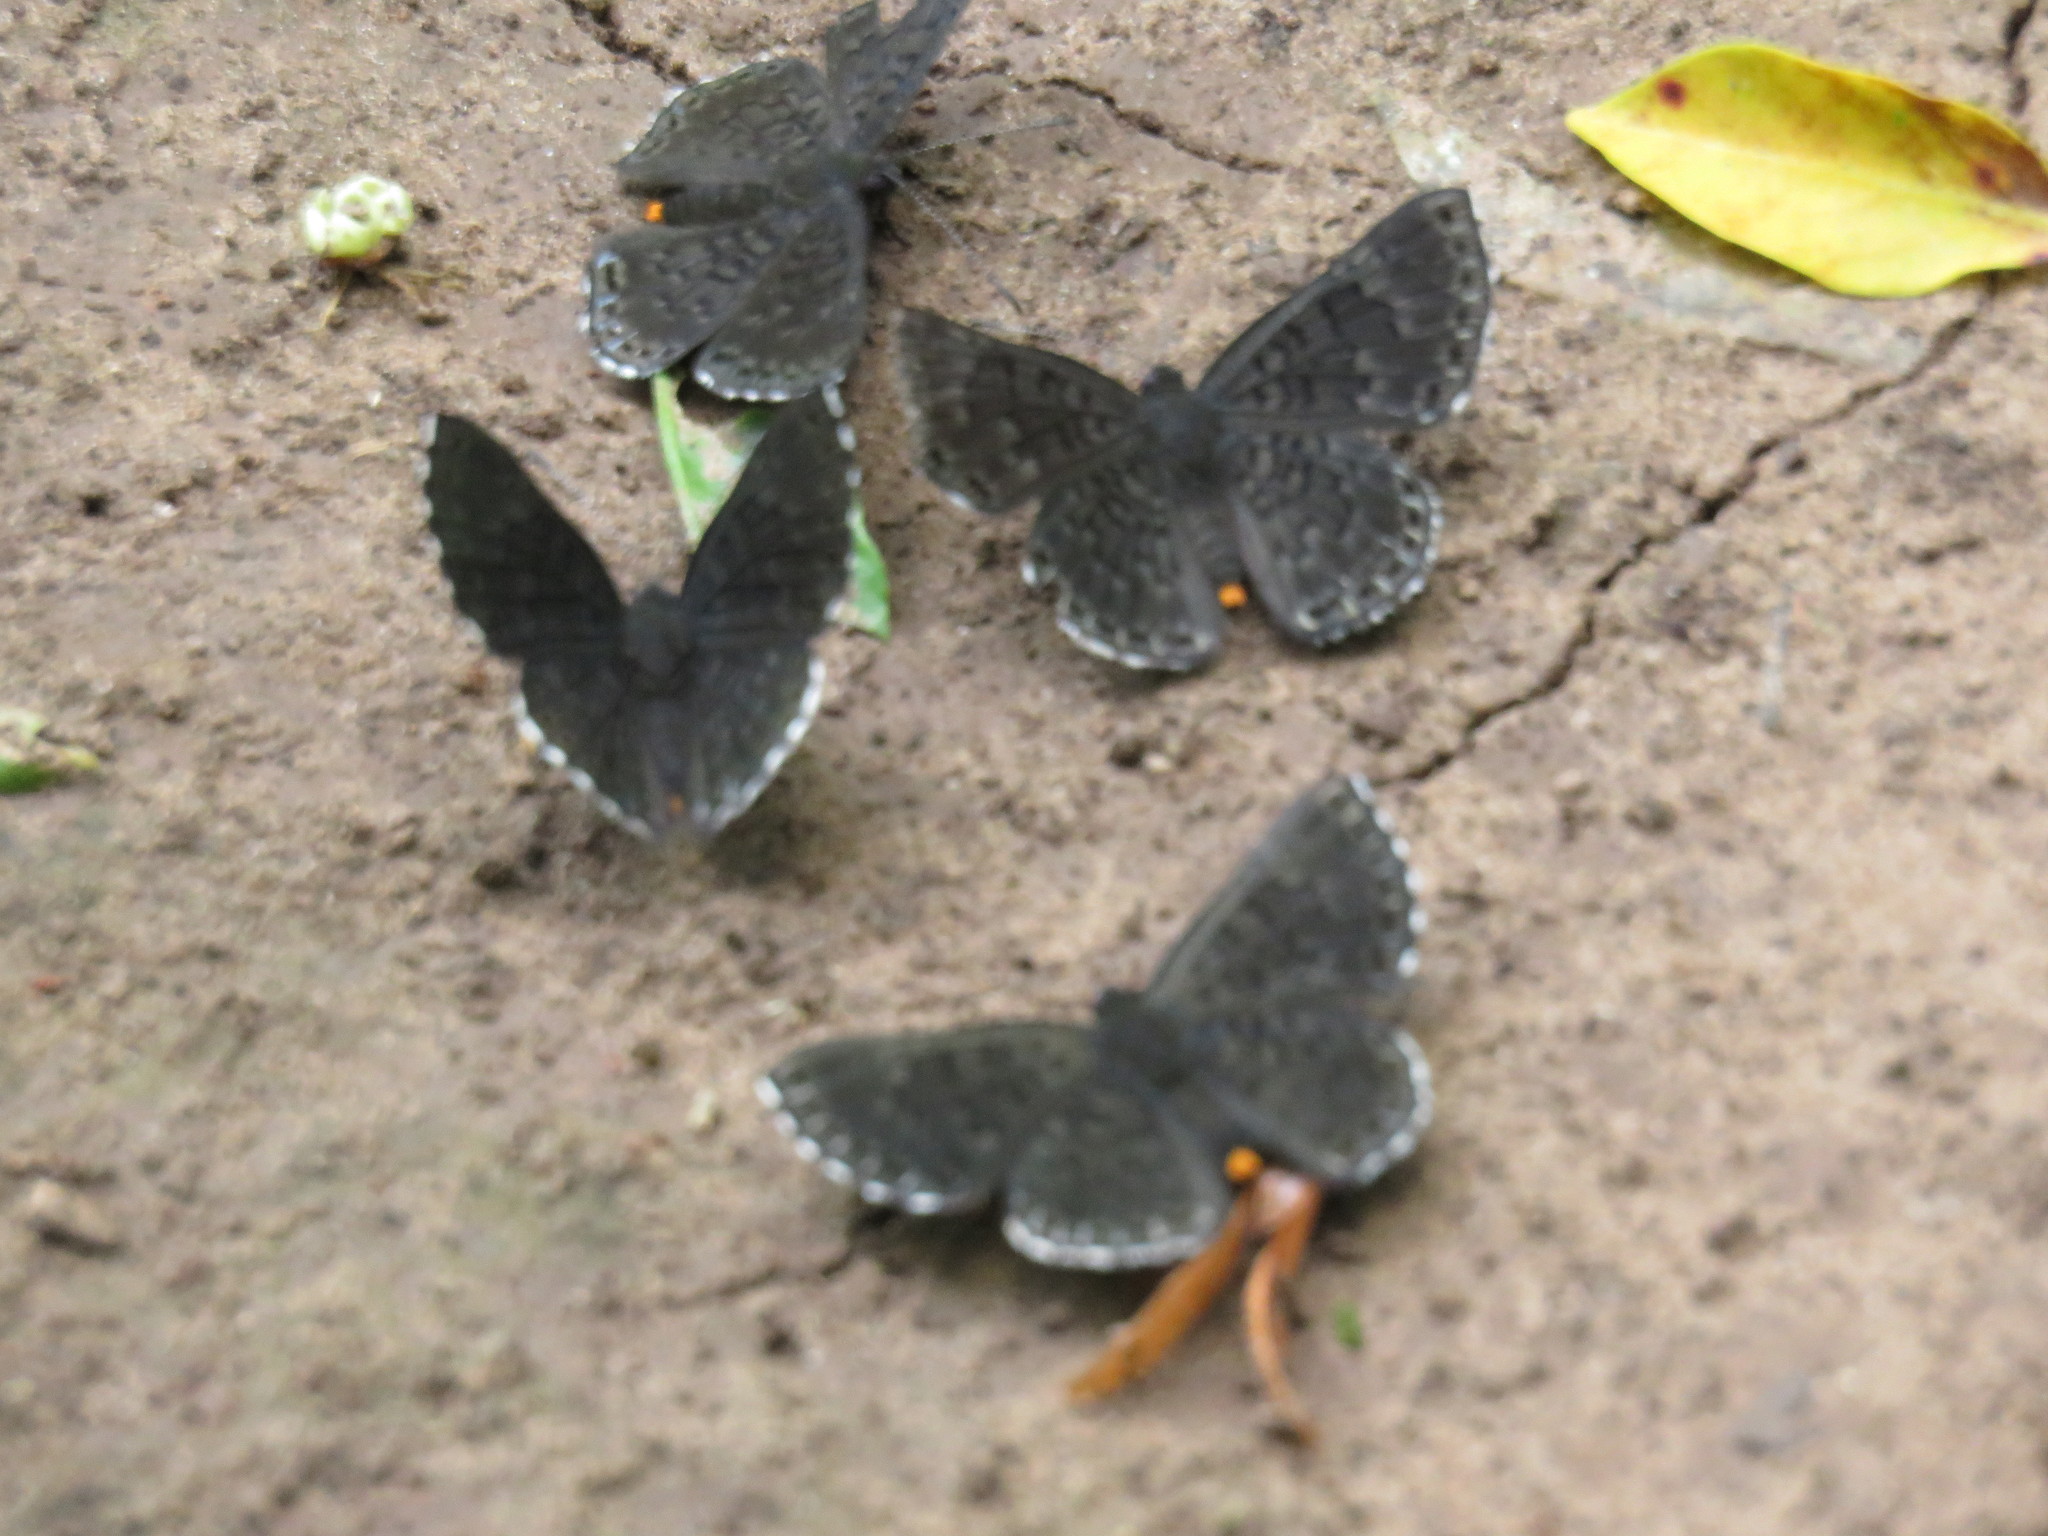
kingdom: Animalia
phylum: Arthropoda
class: Insecta
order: Lepidoptera
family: Riodinidae
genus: Nelone
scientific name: Nelone Exoplisia myrtis
